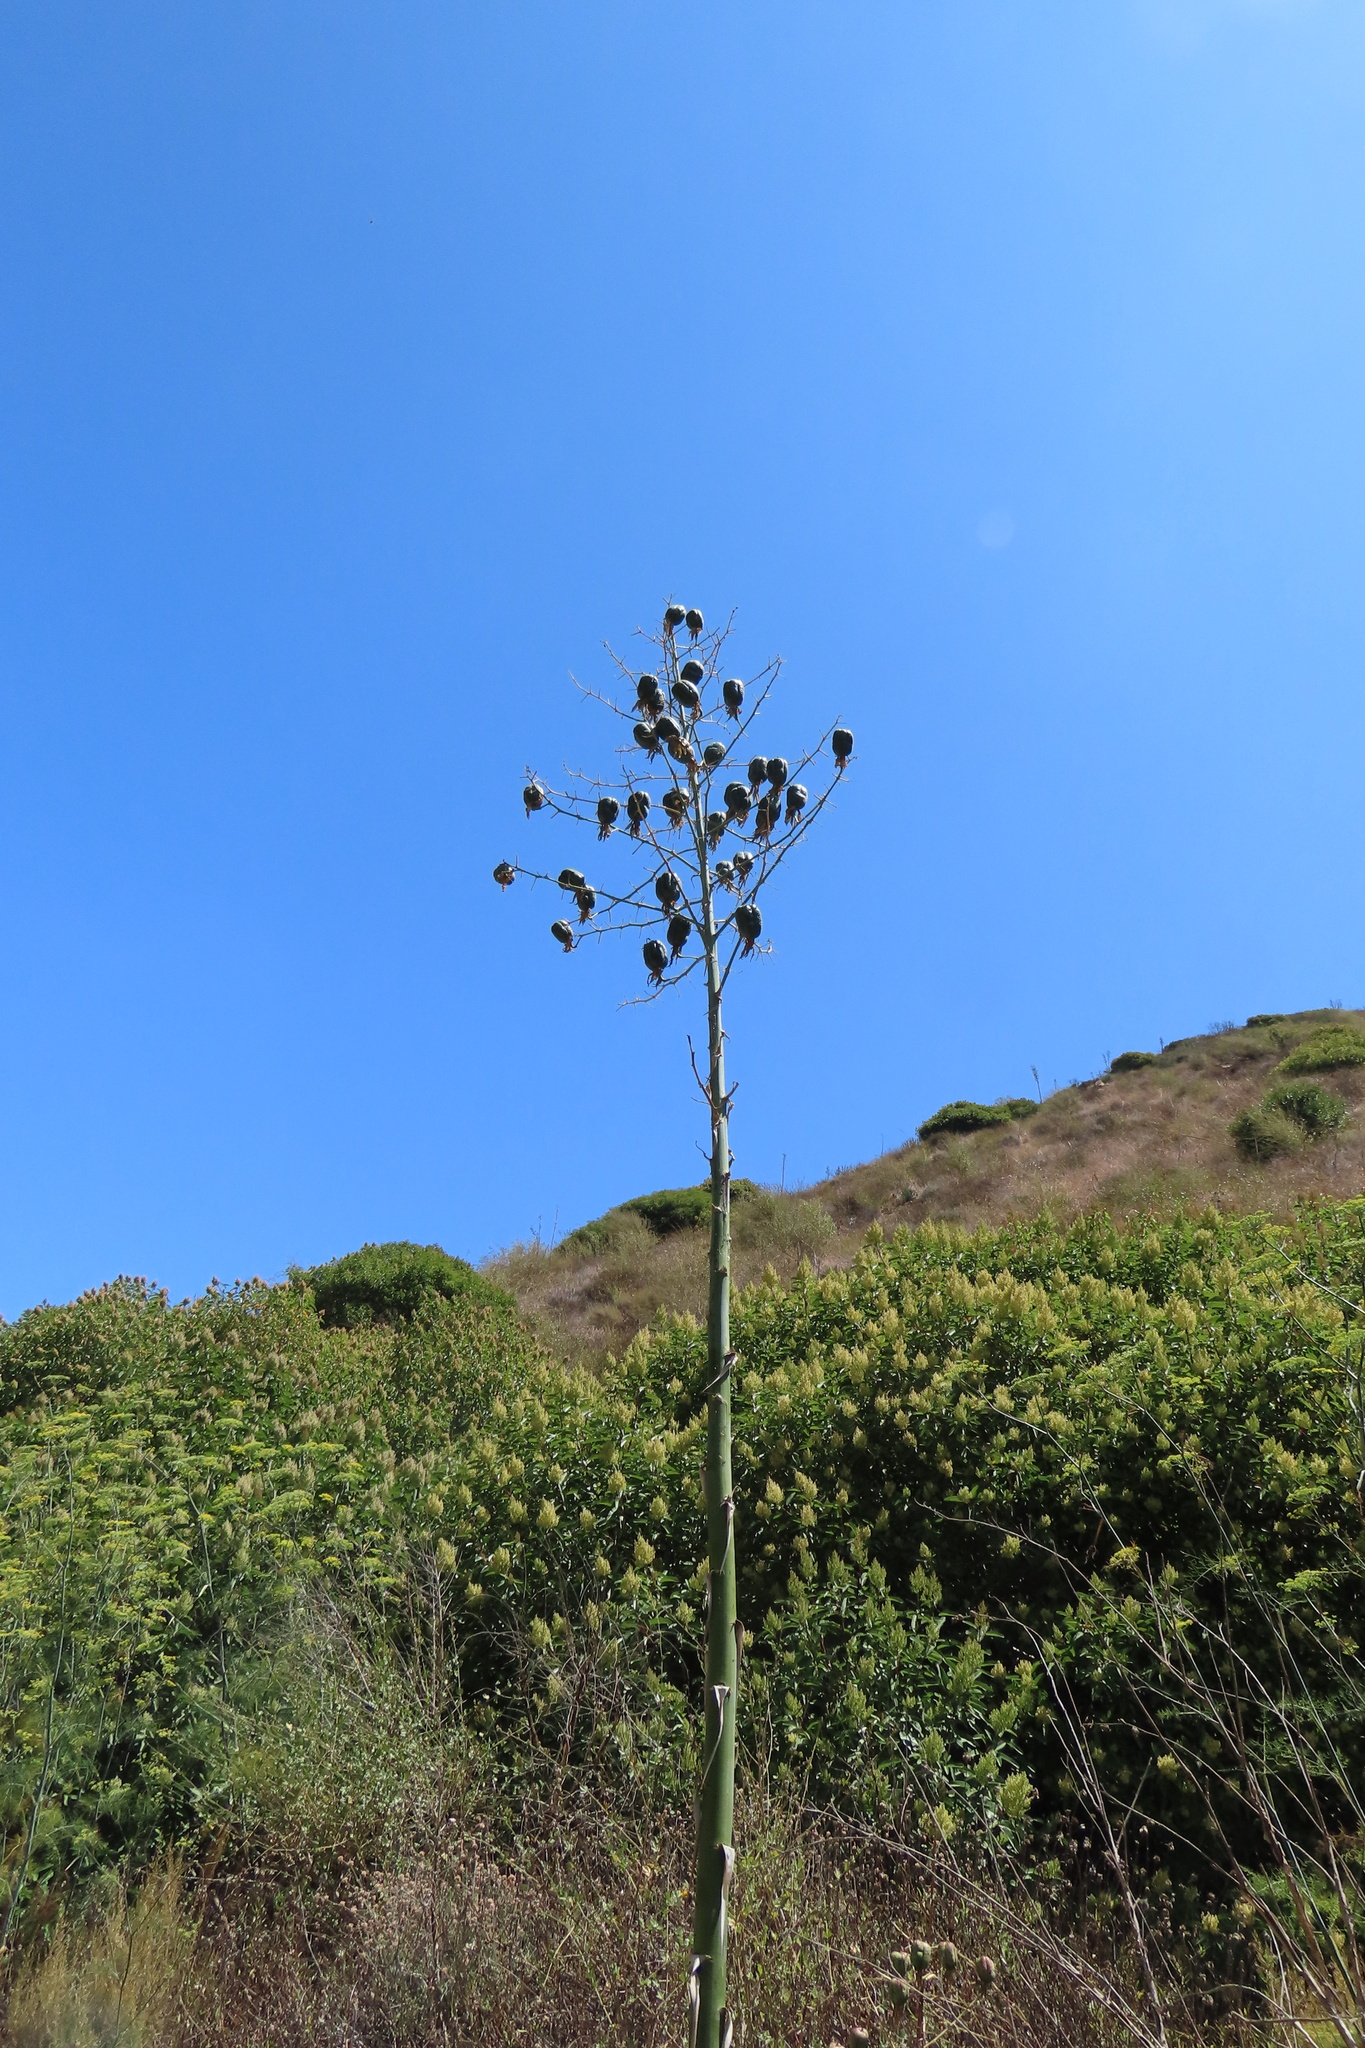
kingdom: Plantae
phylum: Tracheophyta
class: Liliopsida
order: Asparagales
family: Asparagaceae
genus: Hesperoyucca
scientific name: Hesperoyucca whipplei
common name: Our lord's-candle
